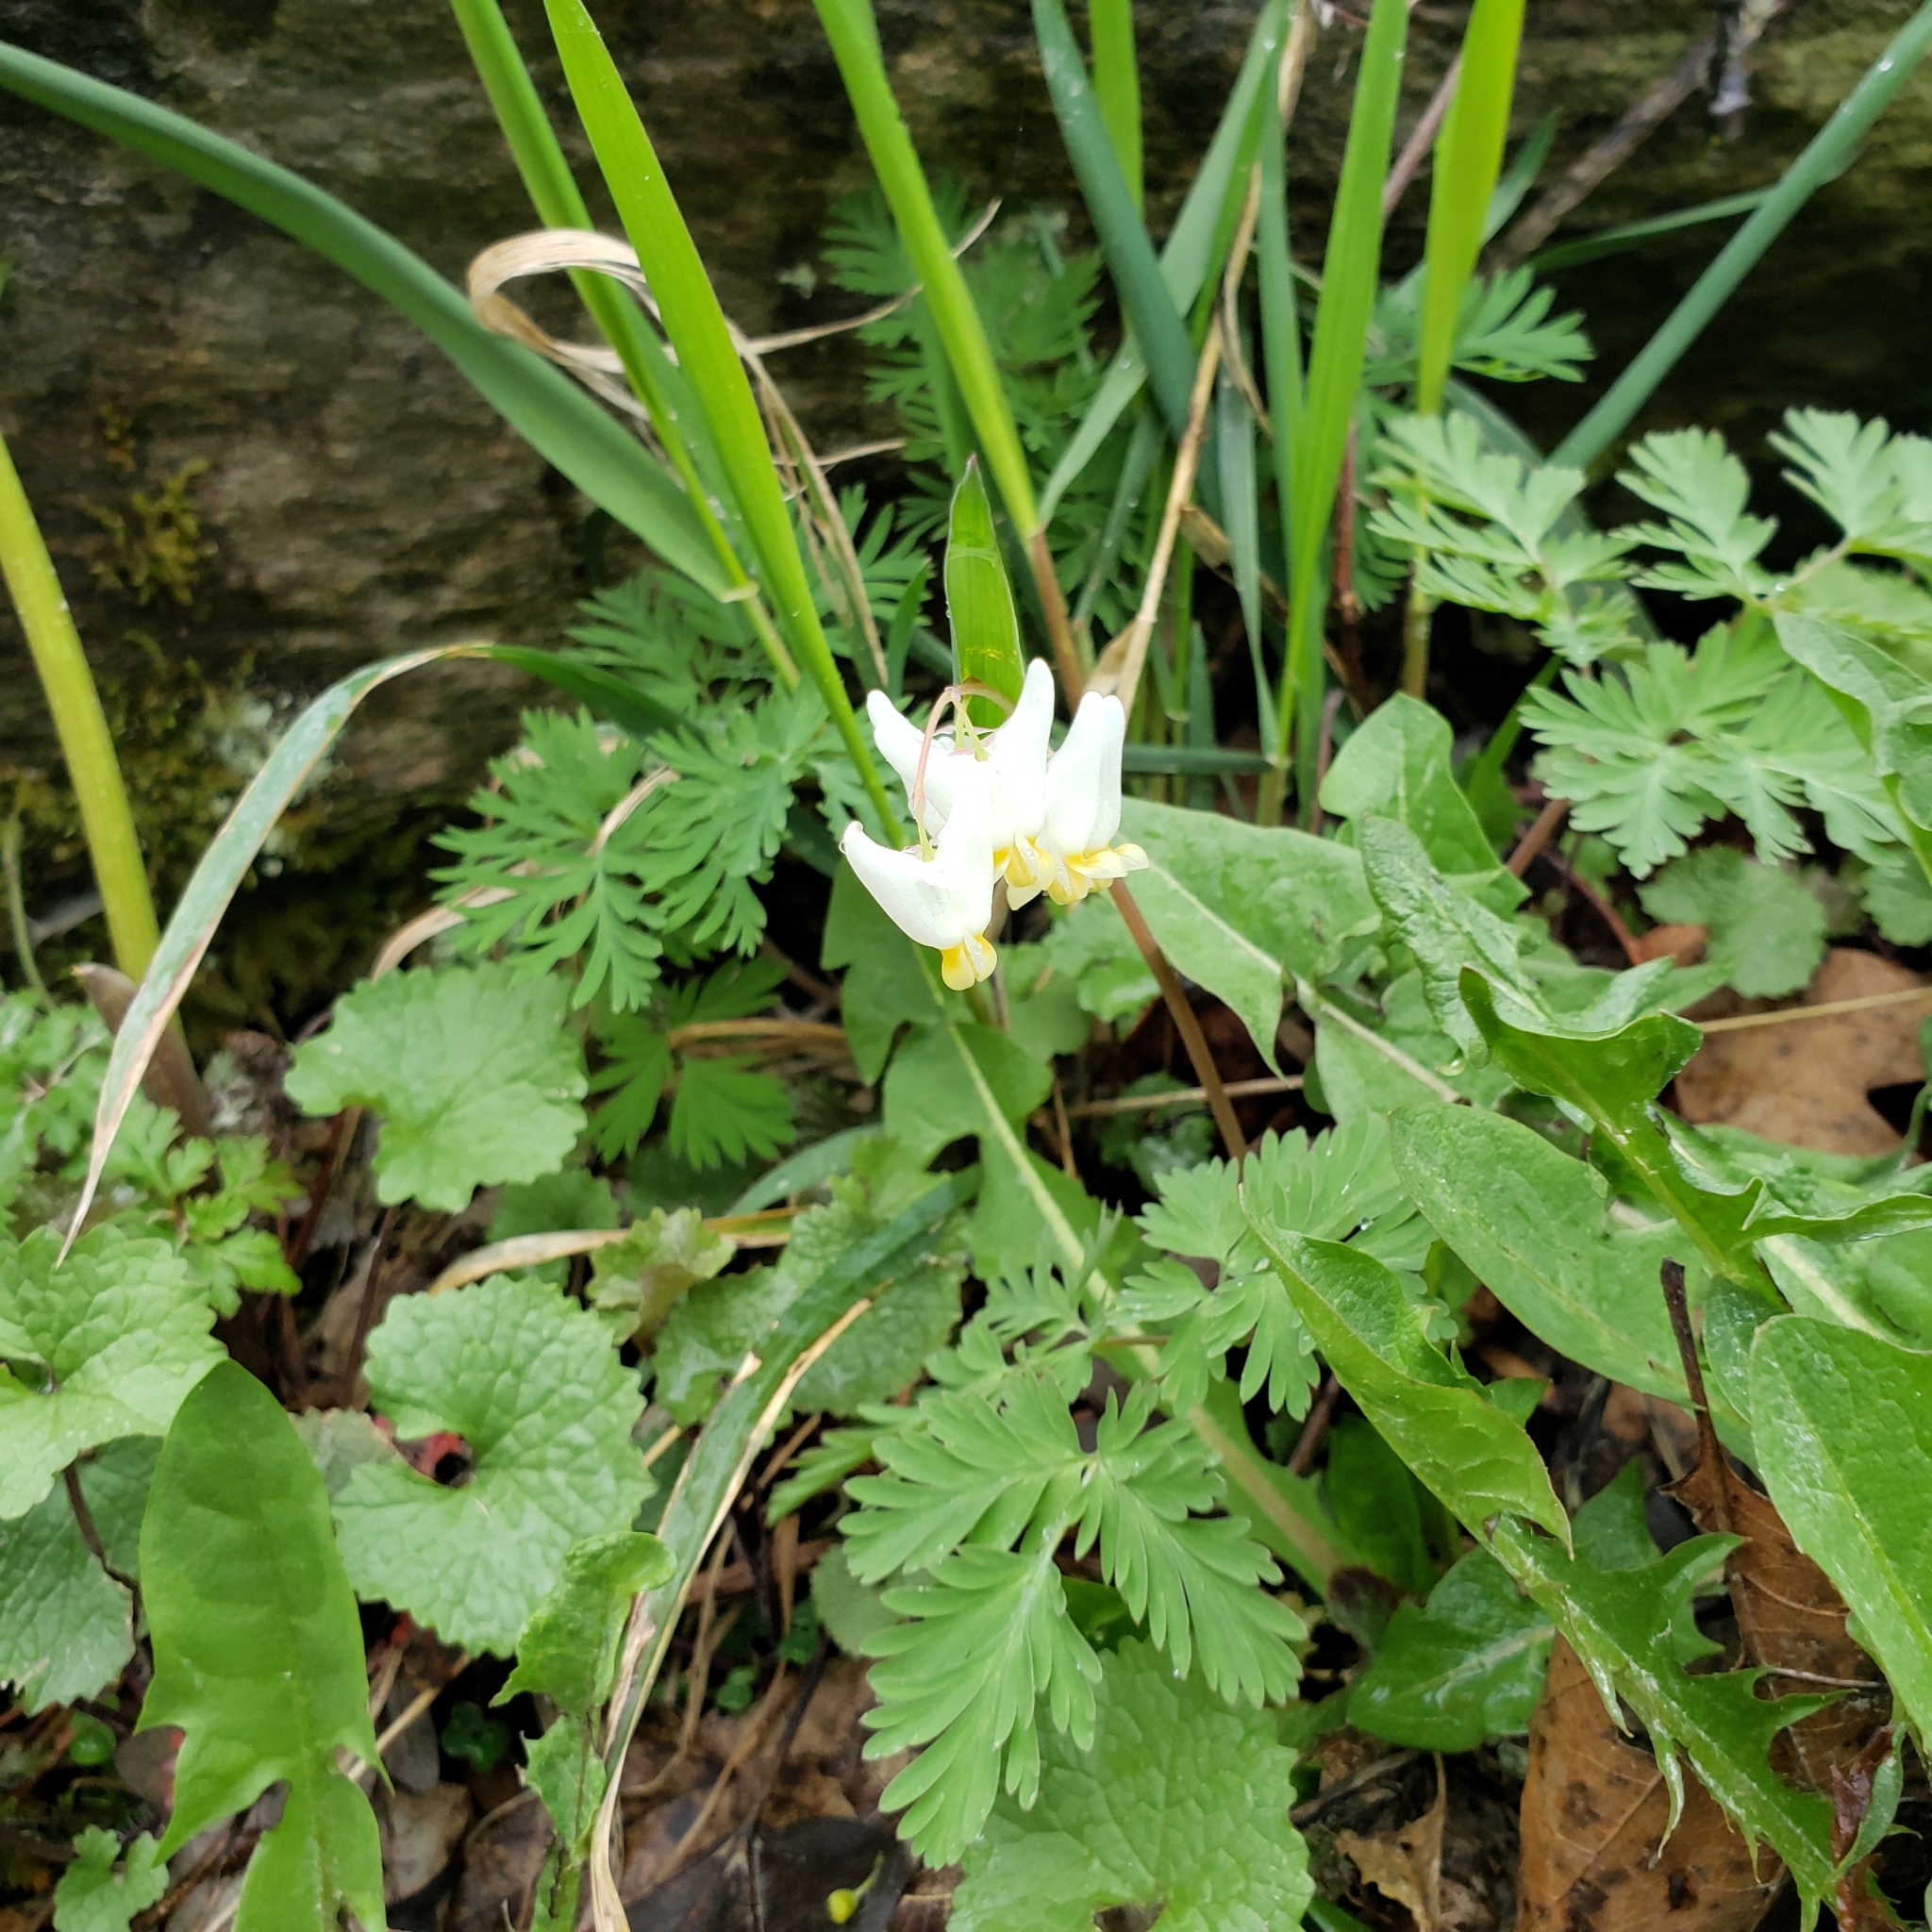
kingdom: Plantae
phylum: Tracheophyta
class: Magnoliopsida
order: Ranunculales
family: Papaveraceae
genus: Dicentra
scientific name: Dicentra cucullaria
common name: Dutchman's breeches
